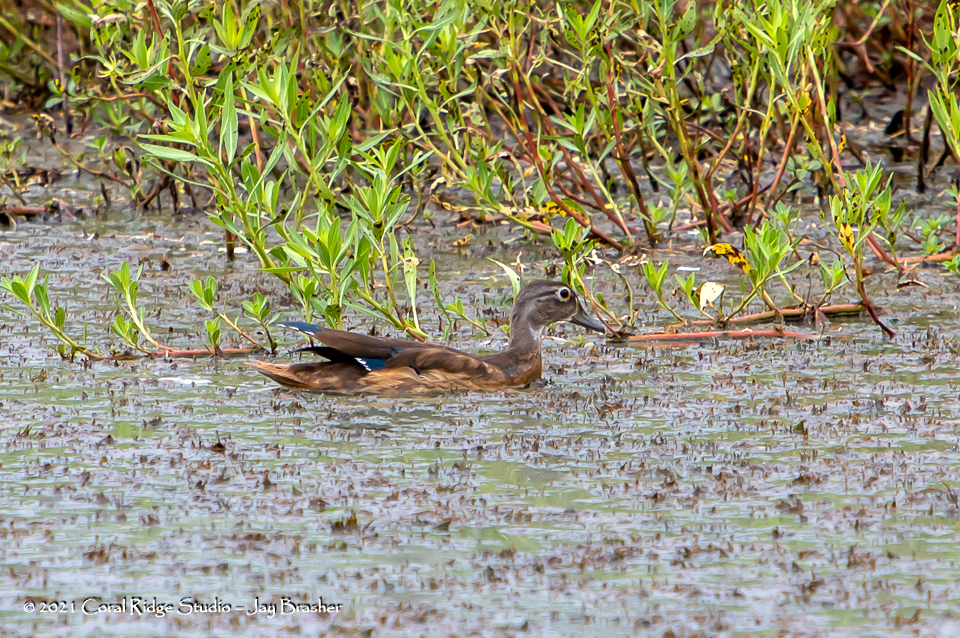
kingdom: Animalia
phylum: Chordata
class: Aves
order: Anseriformes
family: Anatidae
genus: Aix
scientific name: Aix sponsa
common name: Wood duck
